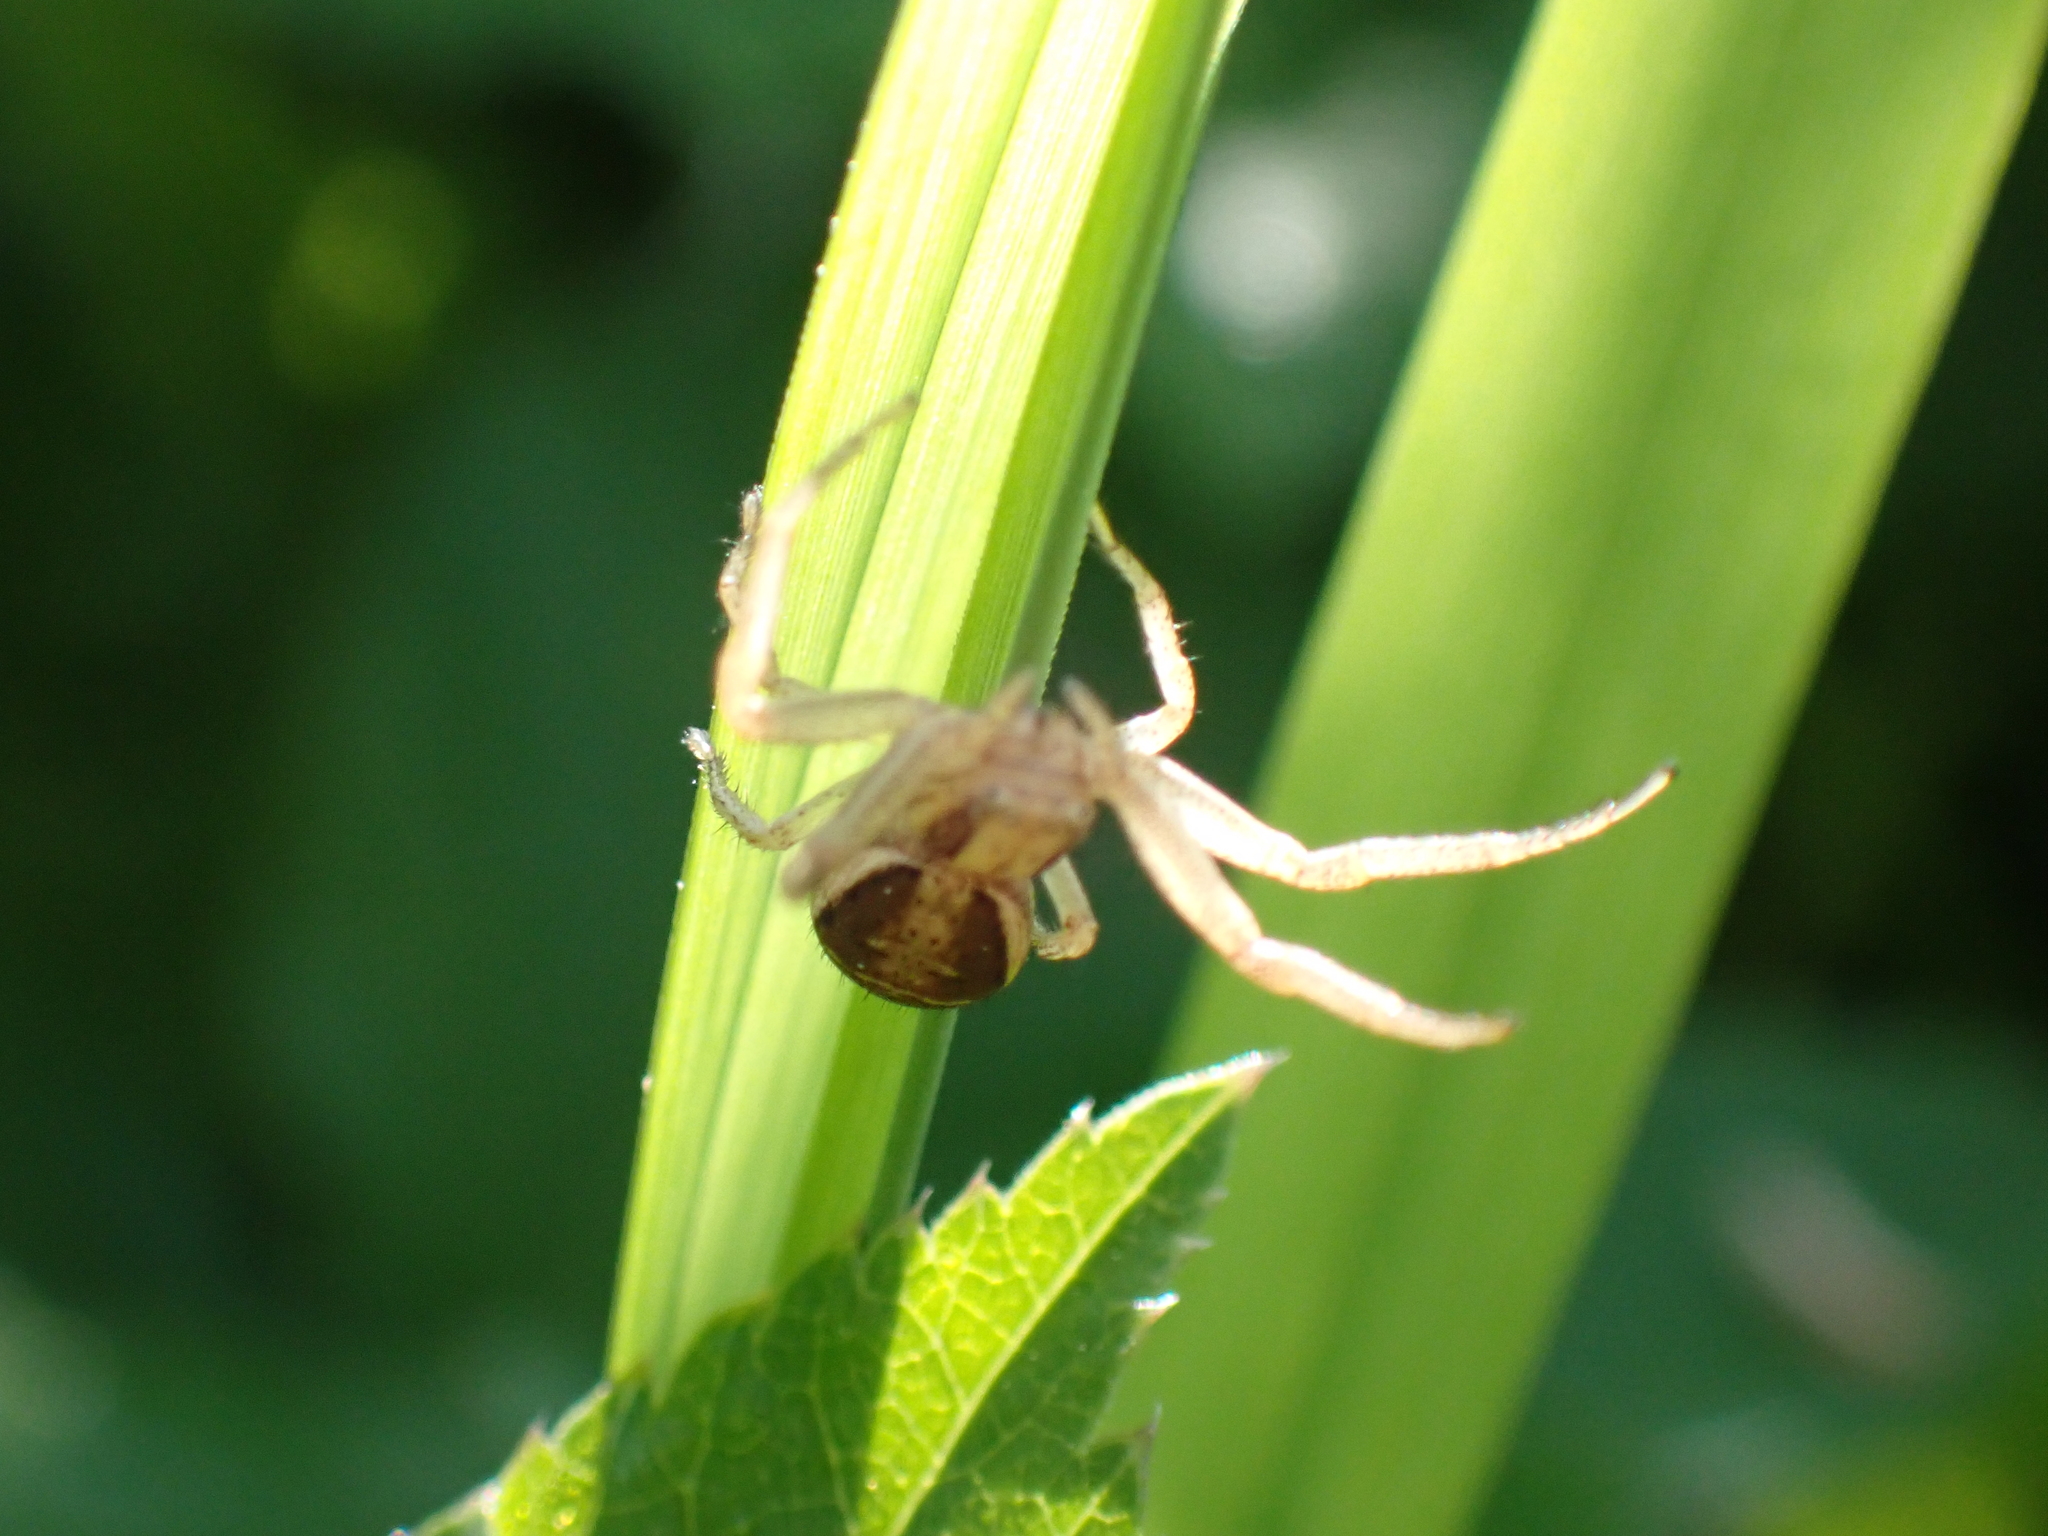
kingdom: Animalia
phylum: Arthropoda
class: Arachnida
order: Araneae
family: Thomisidae
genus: Xysticus
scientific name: Xysticus ulmi
